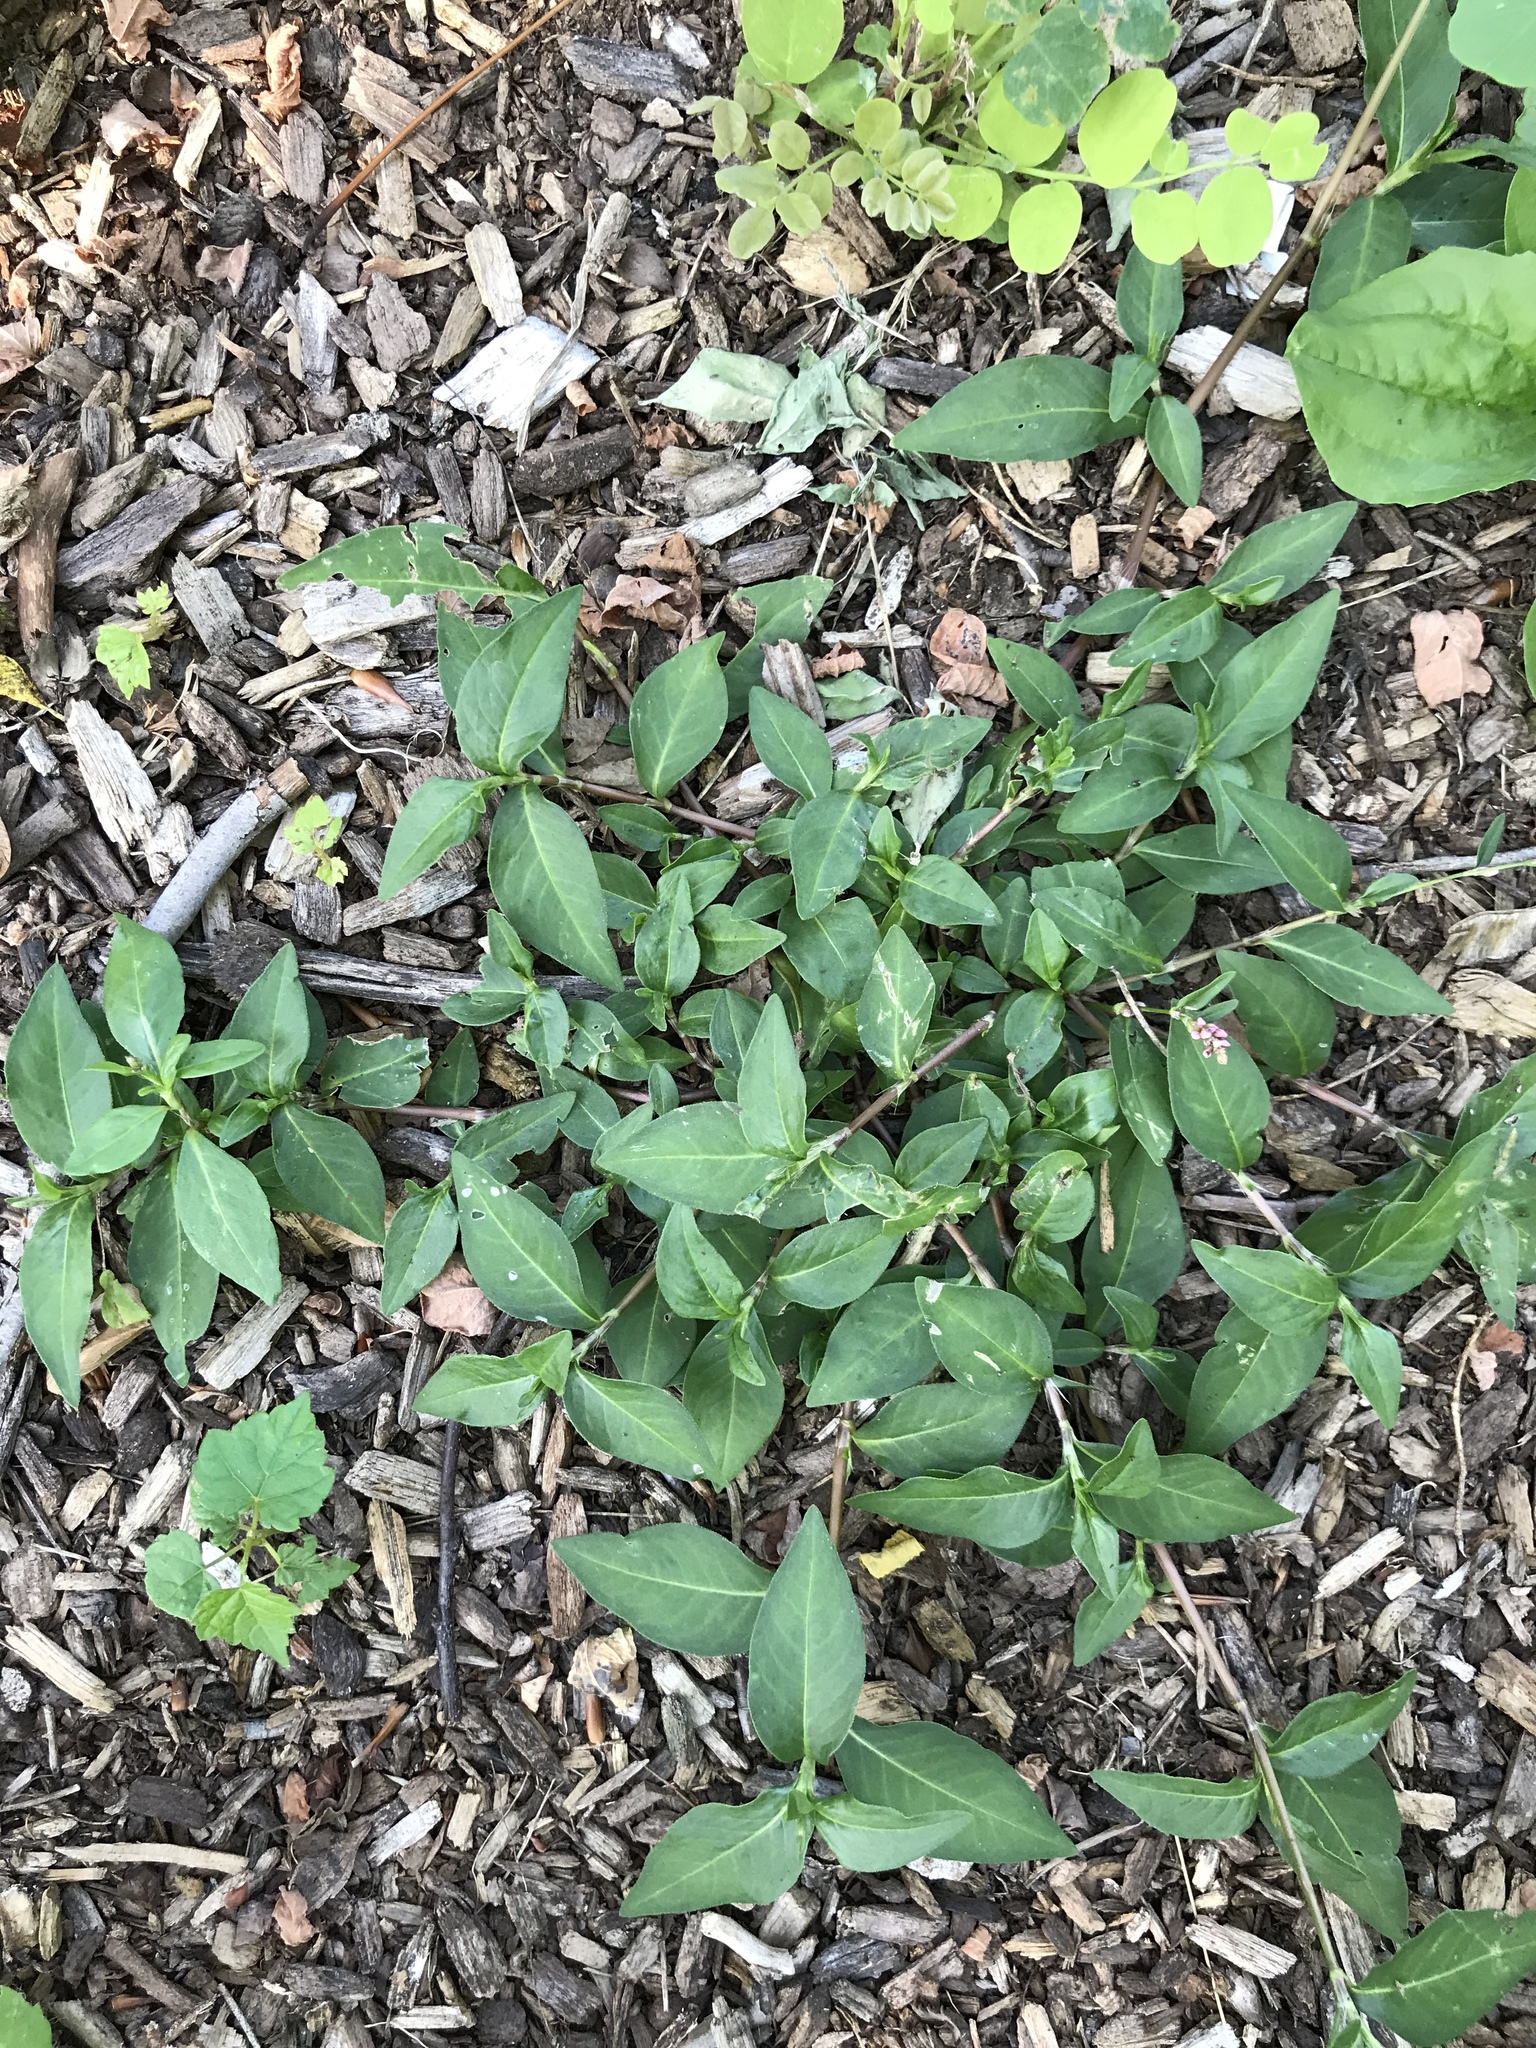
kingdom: Plantae
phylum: Tracheophyta
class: Magnoliopsida
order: Caryophyllales
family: Polygonaceae
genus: Persicaria
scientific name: Persicaria longiseta
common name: Bristly lady's-thumb
